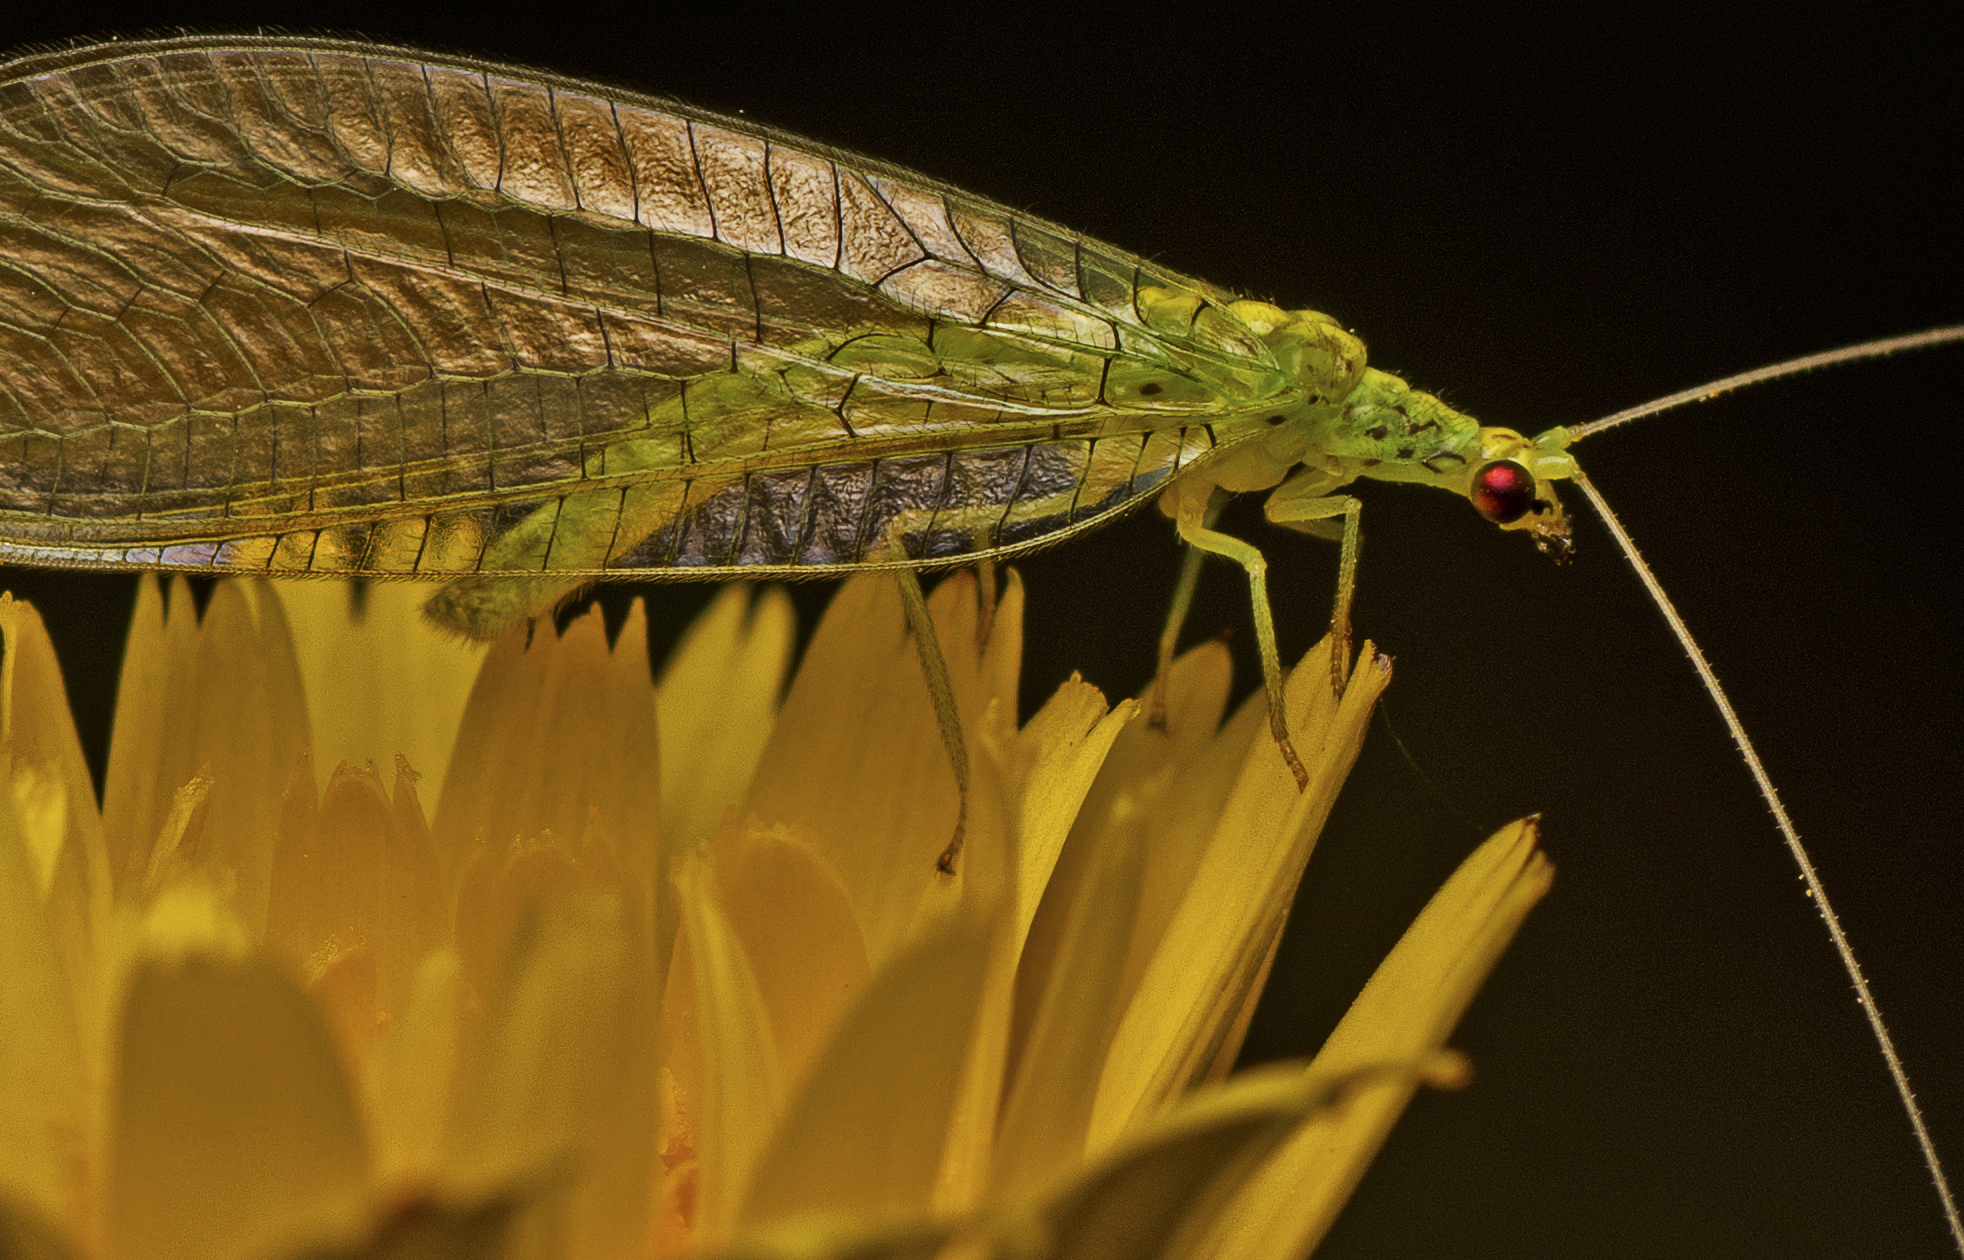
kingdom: Animalia
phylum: Arthropoda
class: Insecta
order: Neuroptera
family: Chrysopidae
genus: Pseudomallada
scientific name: Pseudomallada edwardsi
